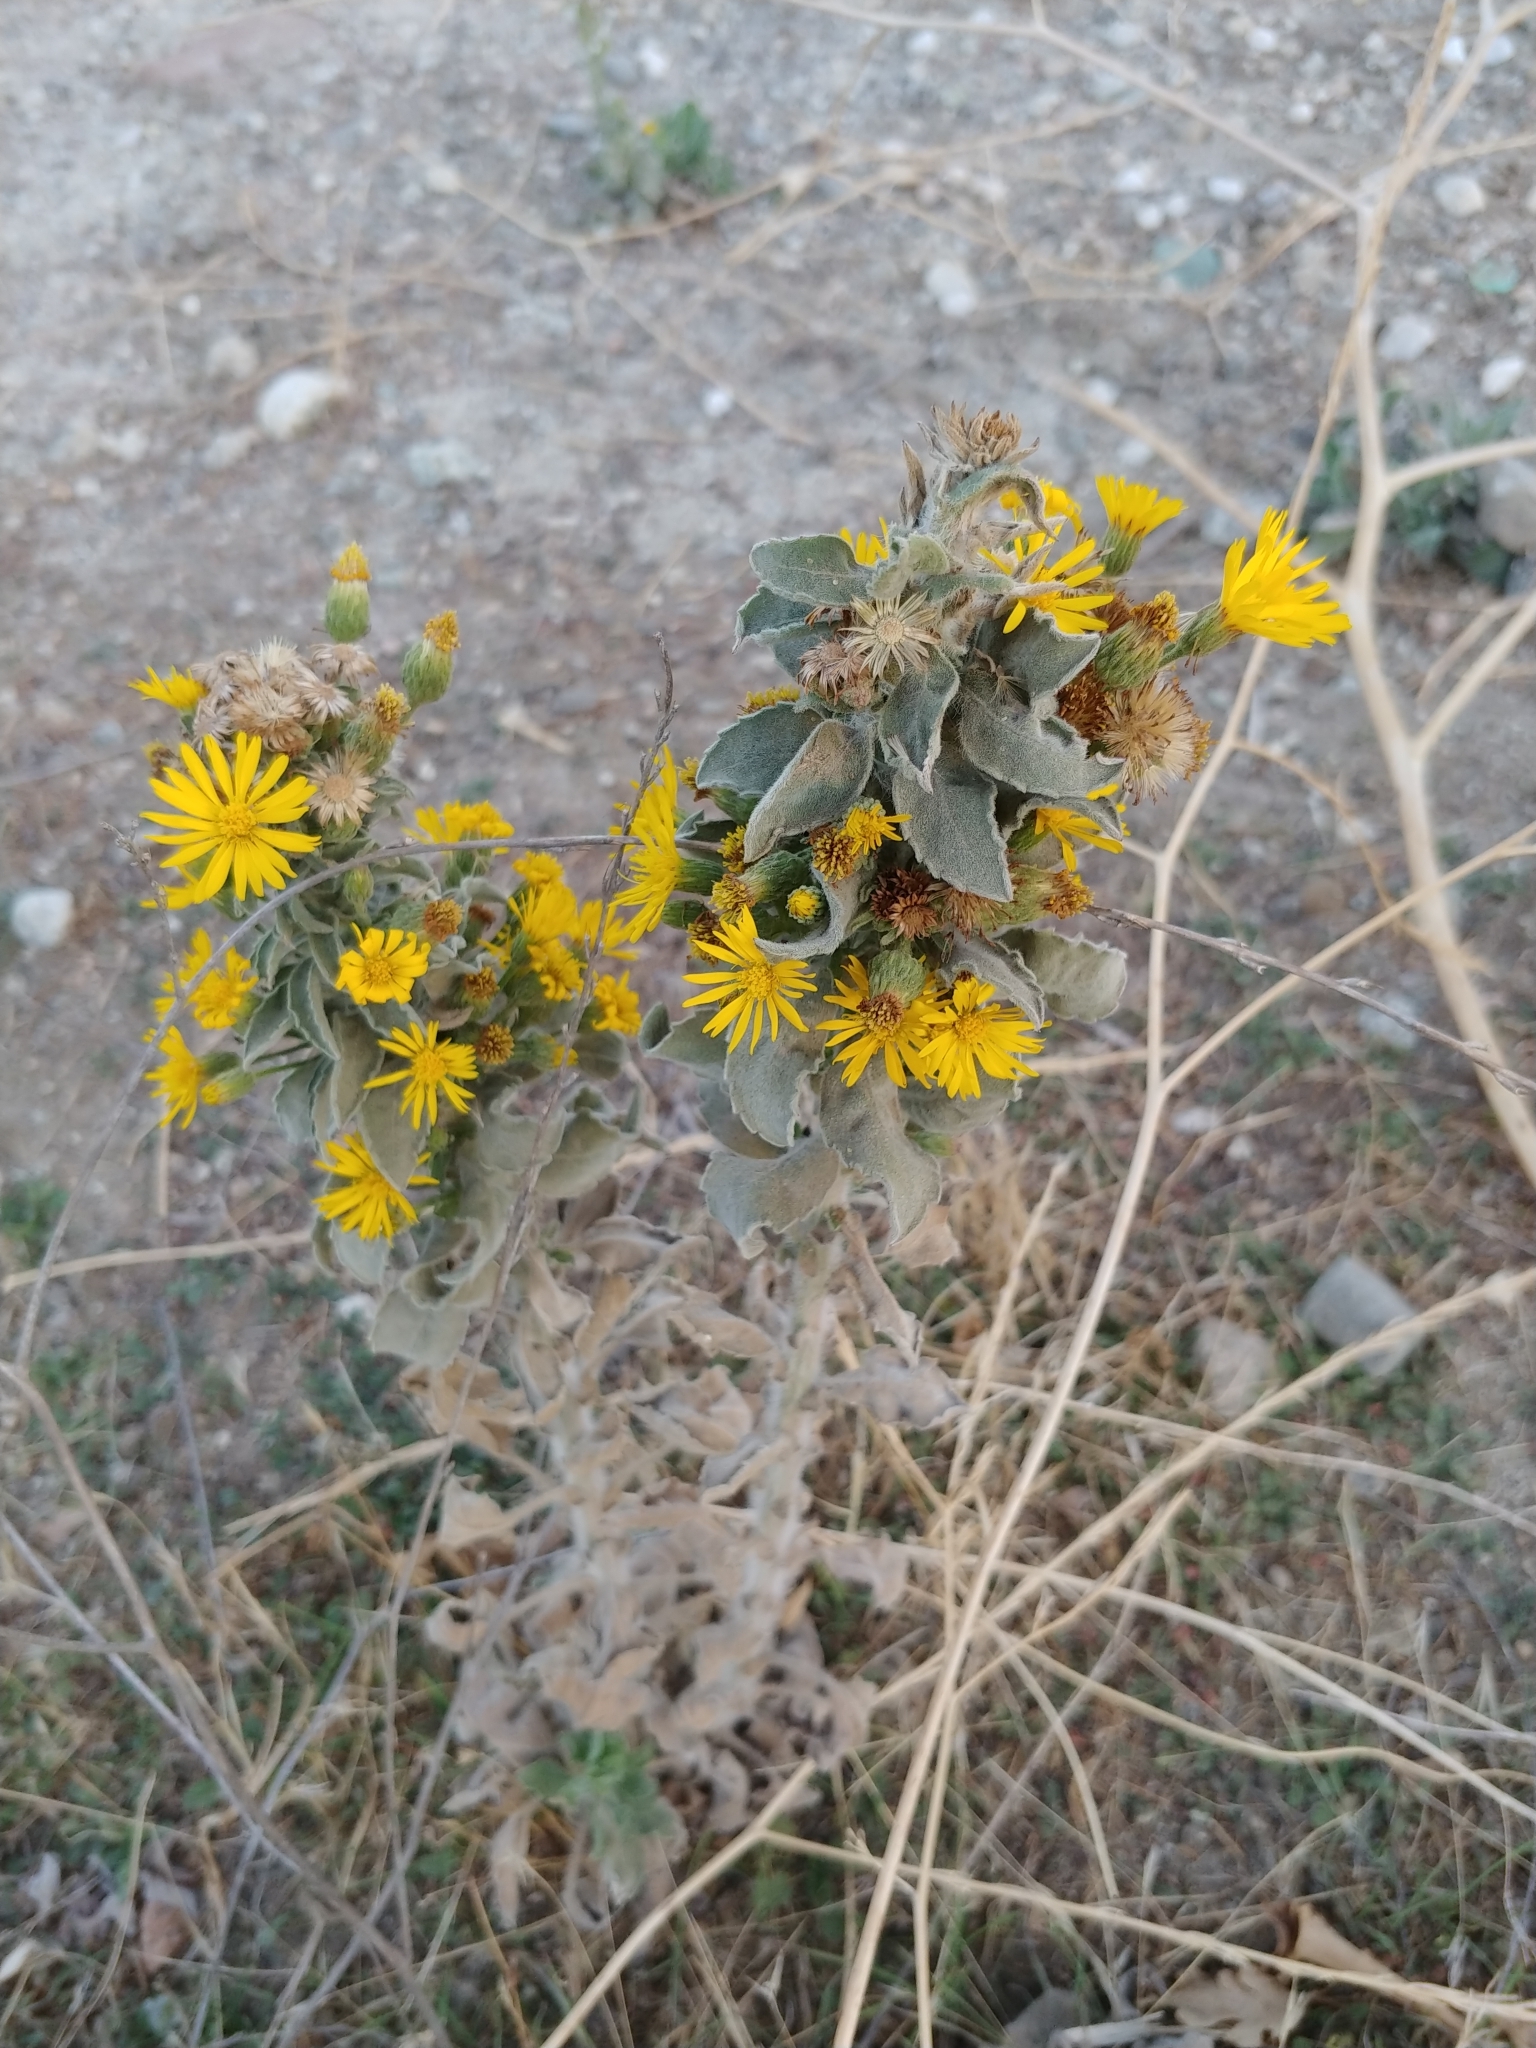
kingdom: Plantae
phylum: Tracheophyta
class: Magnoliopsida
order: Asterales
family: Asteraceae
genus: Heterotheca
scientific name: Heterotheca grandiflora
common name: Telegraphweed
